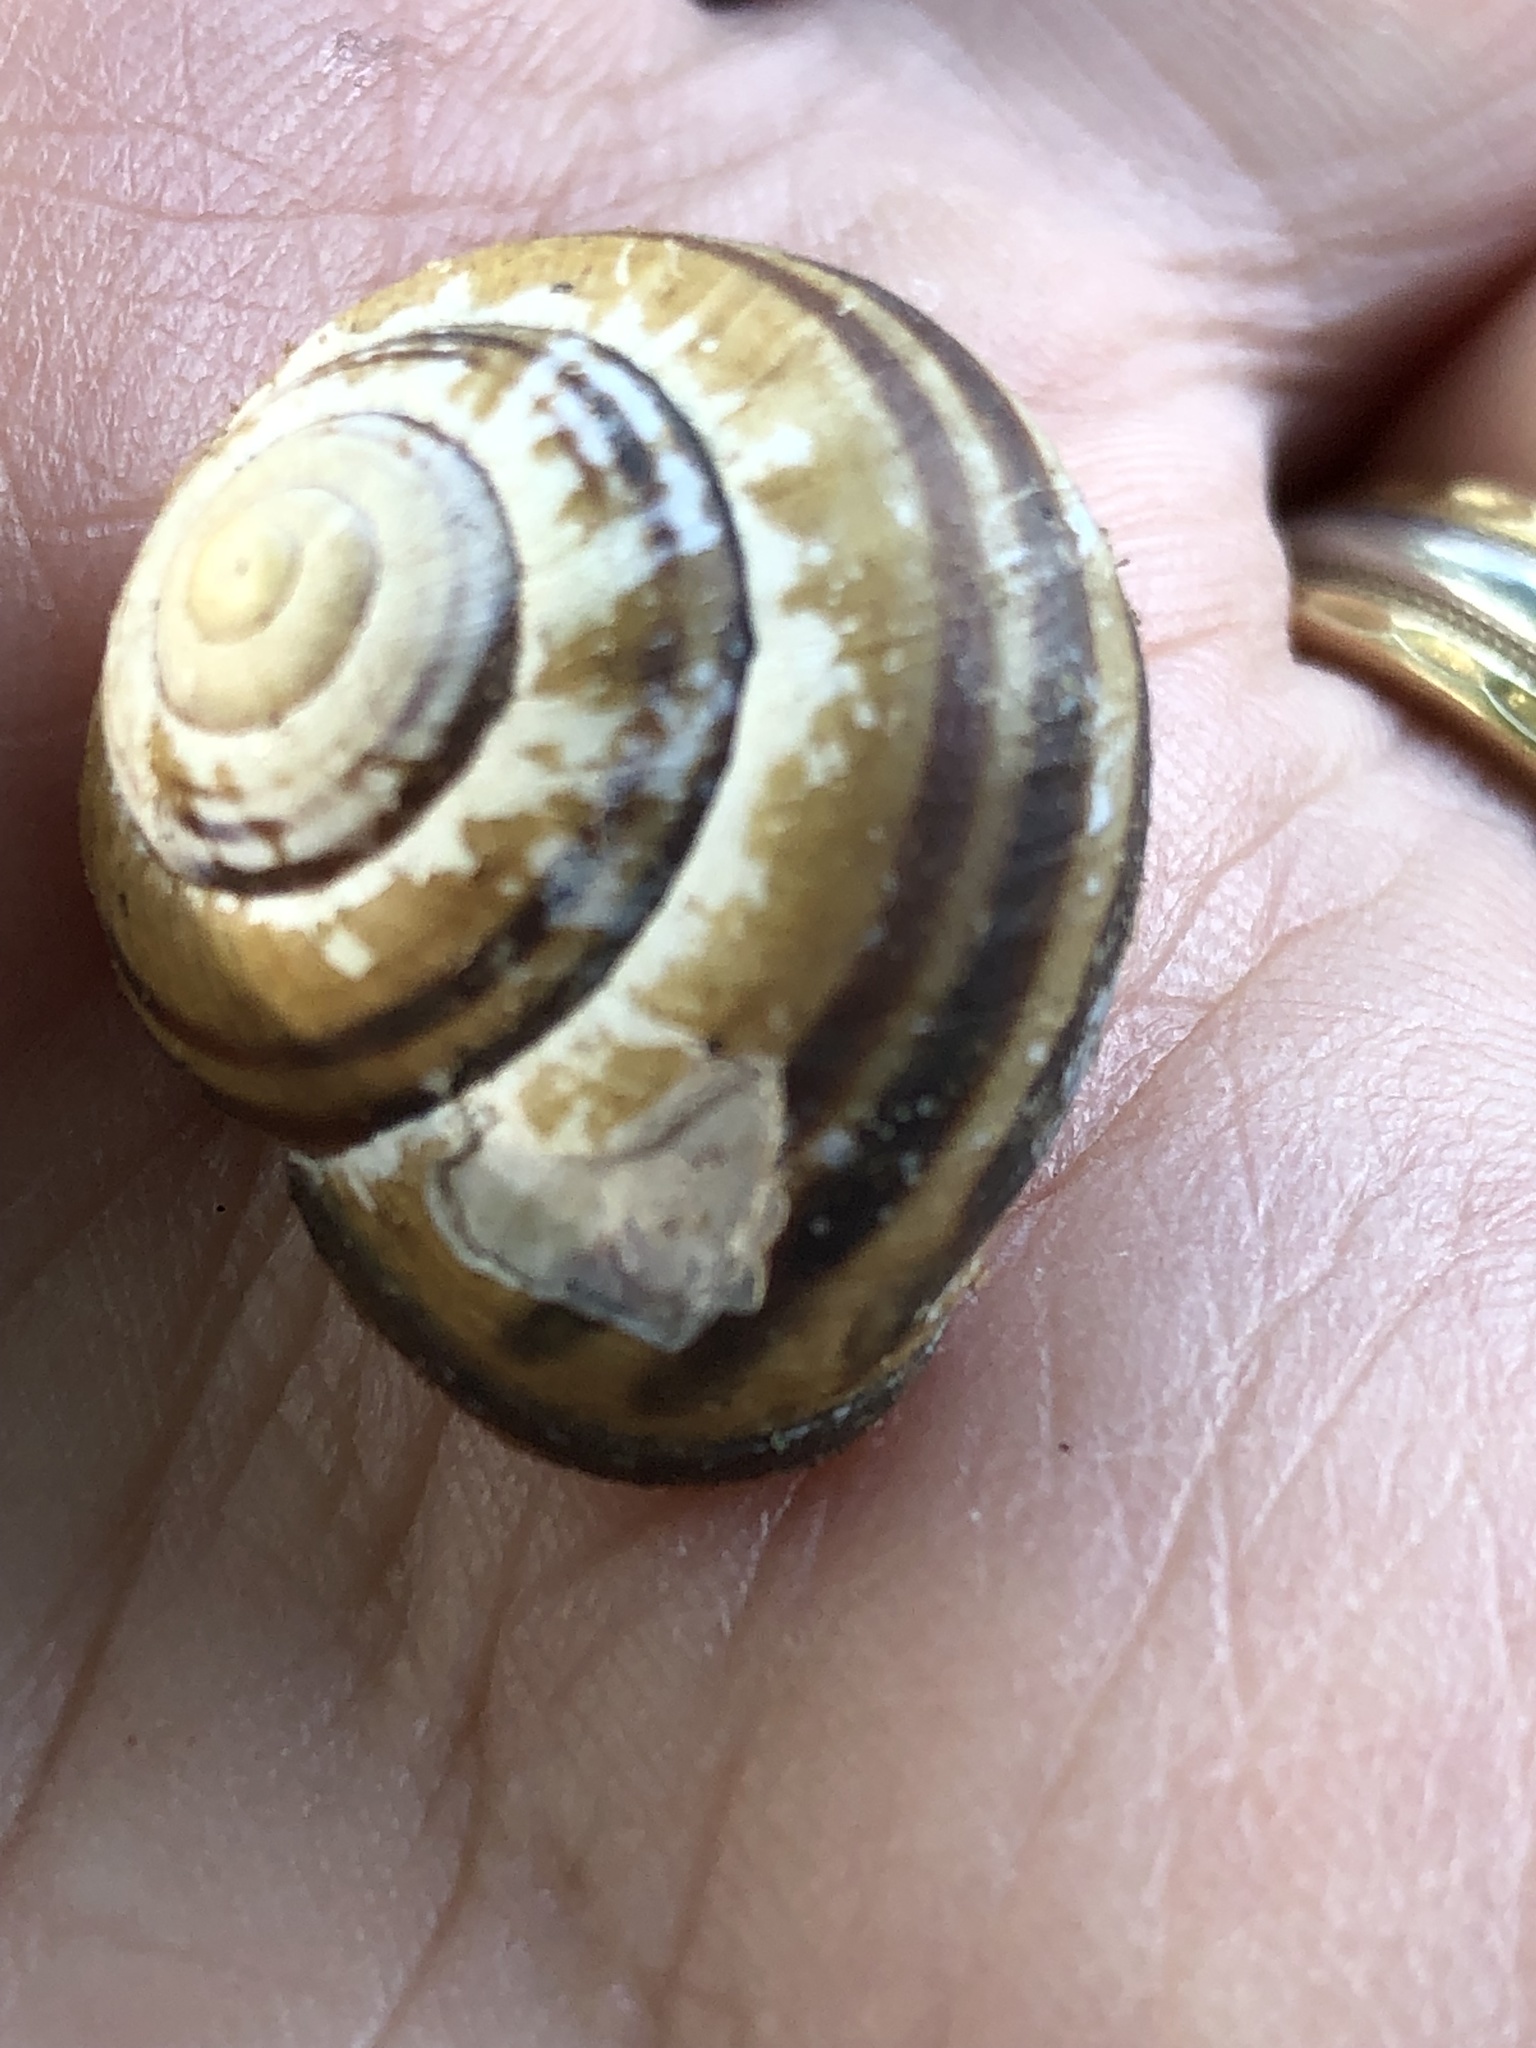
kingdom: Animalia
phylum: Mollusca
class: Gastropoda
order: Stylommatophora
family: Helicidae
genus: Cepaea
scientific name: Cepaea nemoralis
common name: Grovesnail
